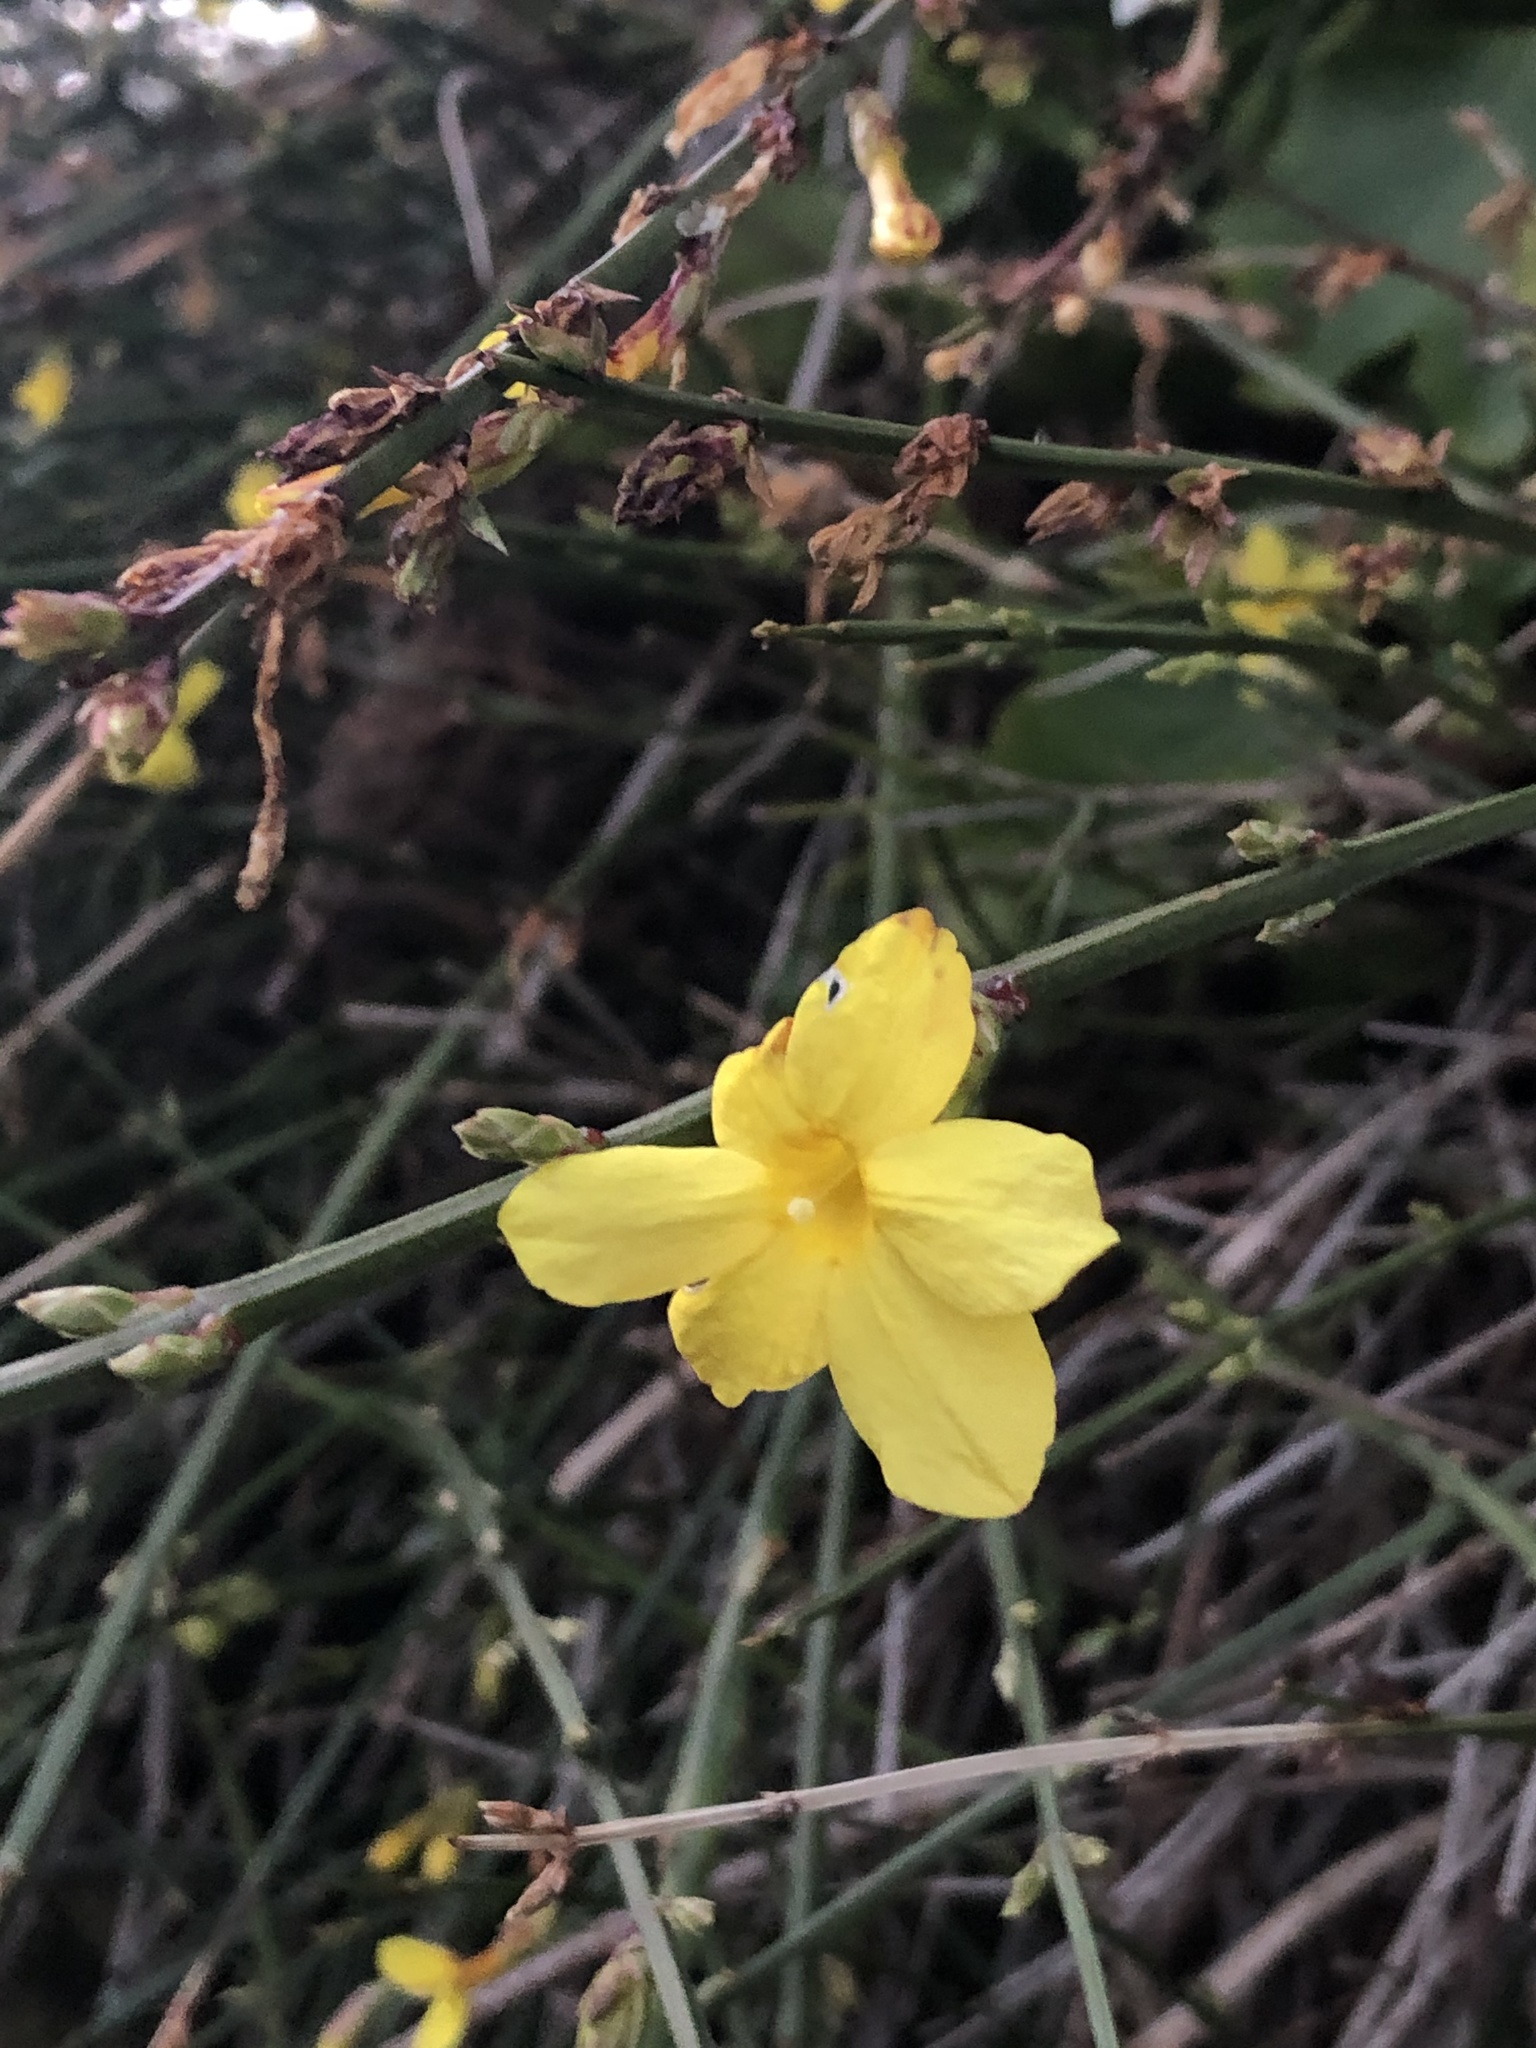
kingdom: Plantae
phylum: Tracheophyta
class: Magnoliopsida
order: Lamiales
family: Oleaceae
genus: Jasminum
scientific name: Jasminum nudiflorum
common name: Winter jasmine
